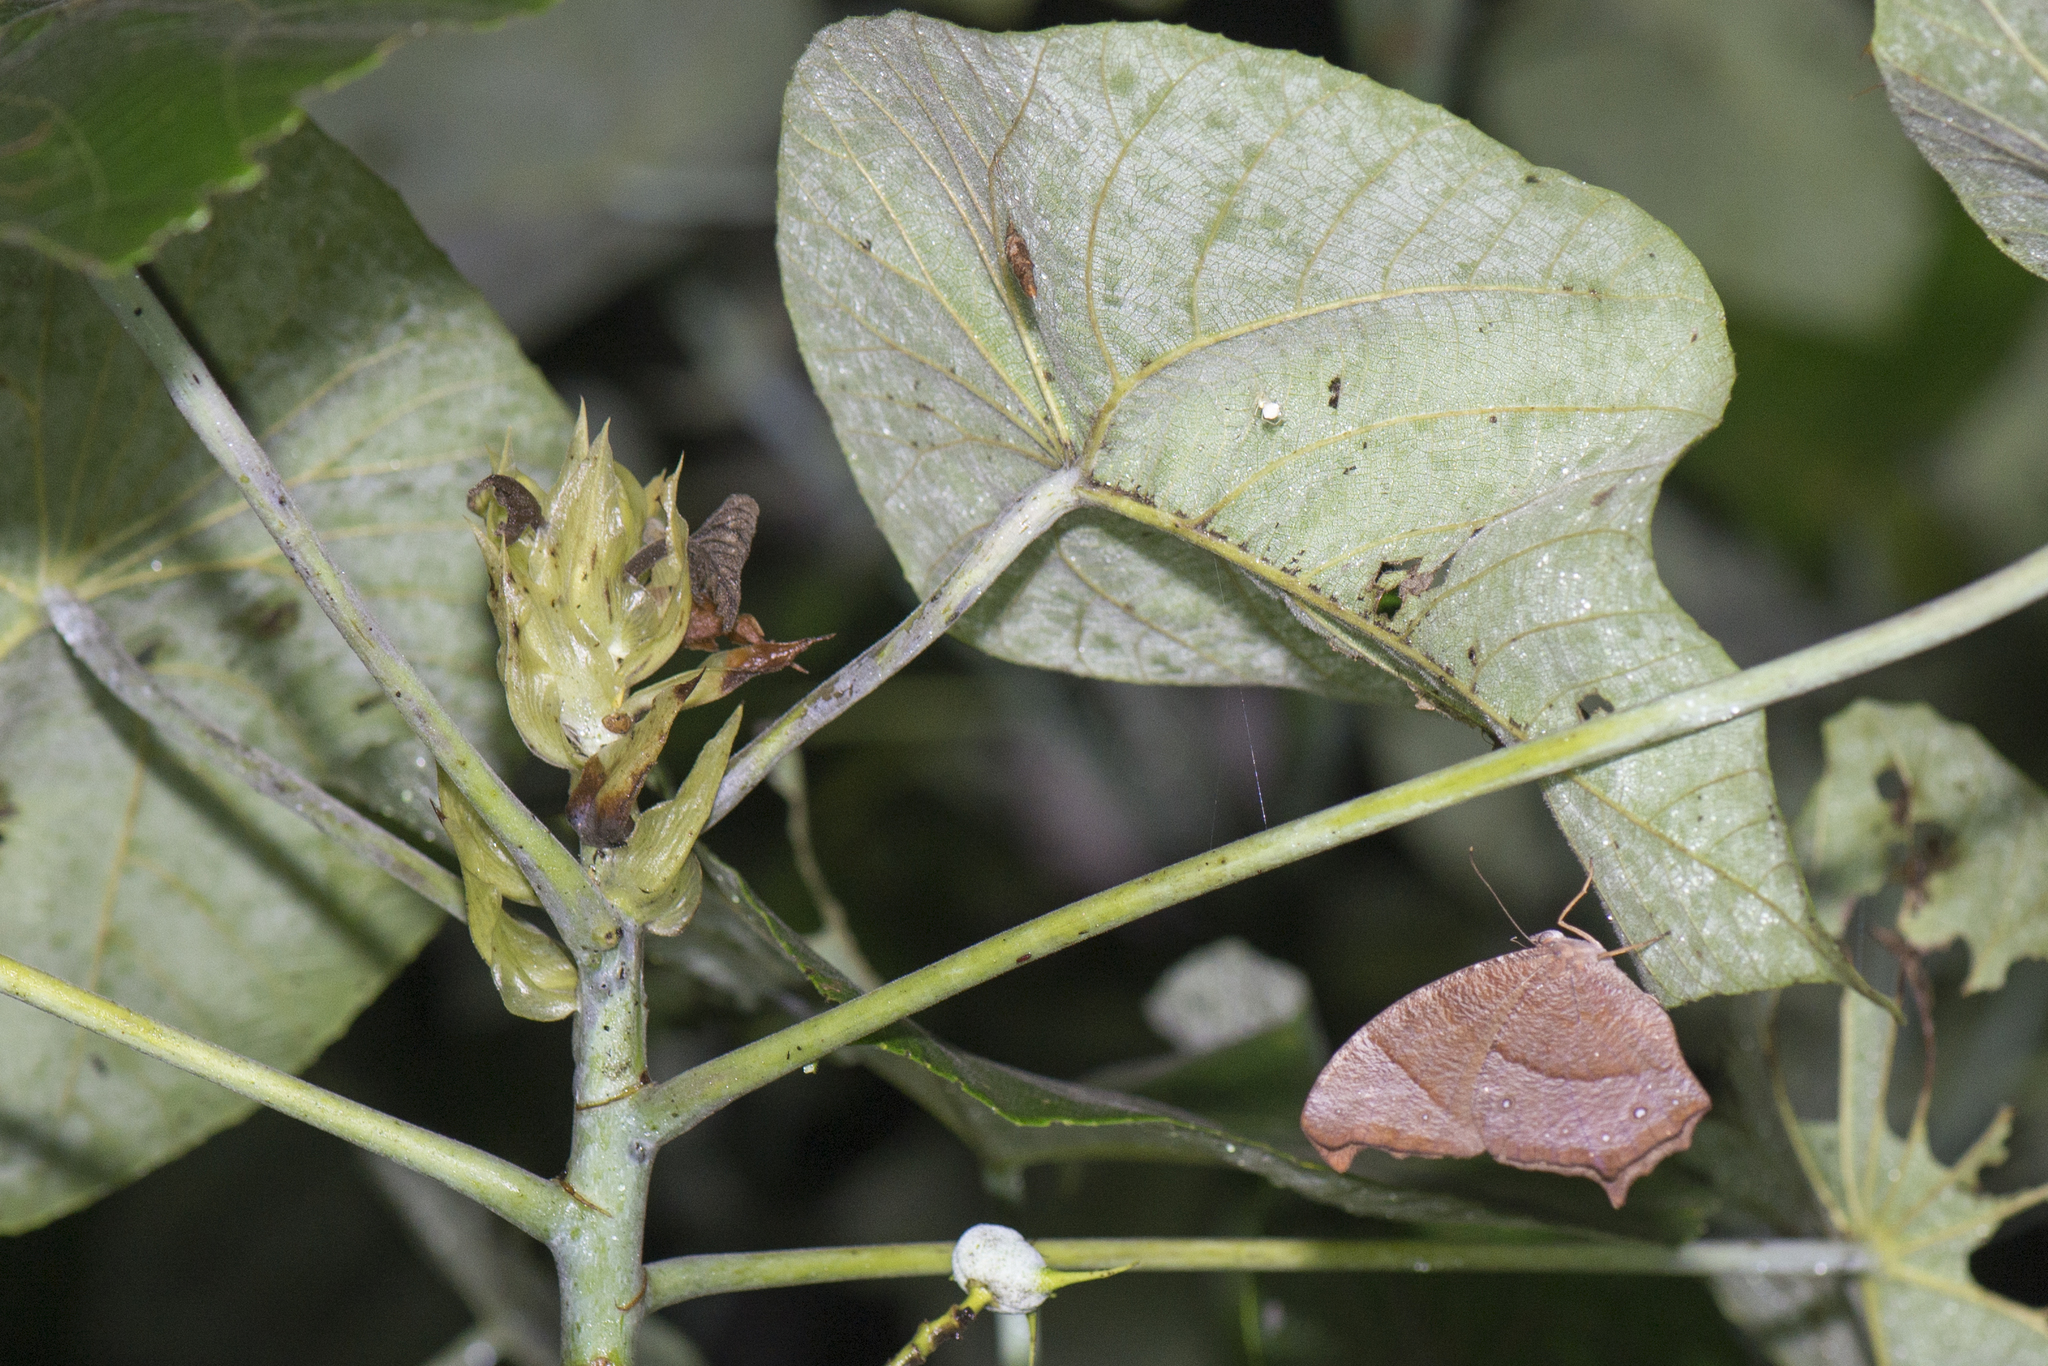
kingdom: Animalia
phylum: Arthropoda
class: Insecta
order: Lepidoptera
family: Nymphalidae
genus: Melanitis
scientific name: Melanitis phedima
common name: Dark evening brown
